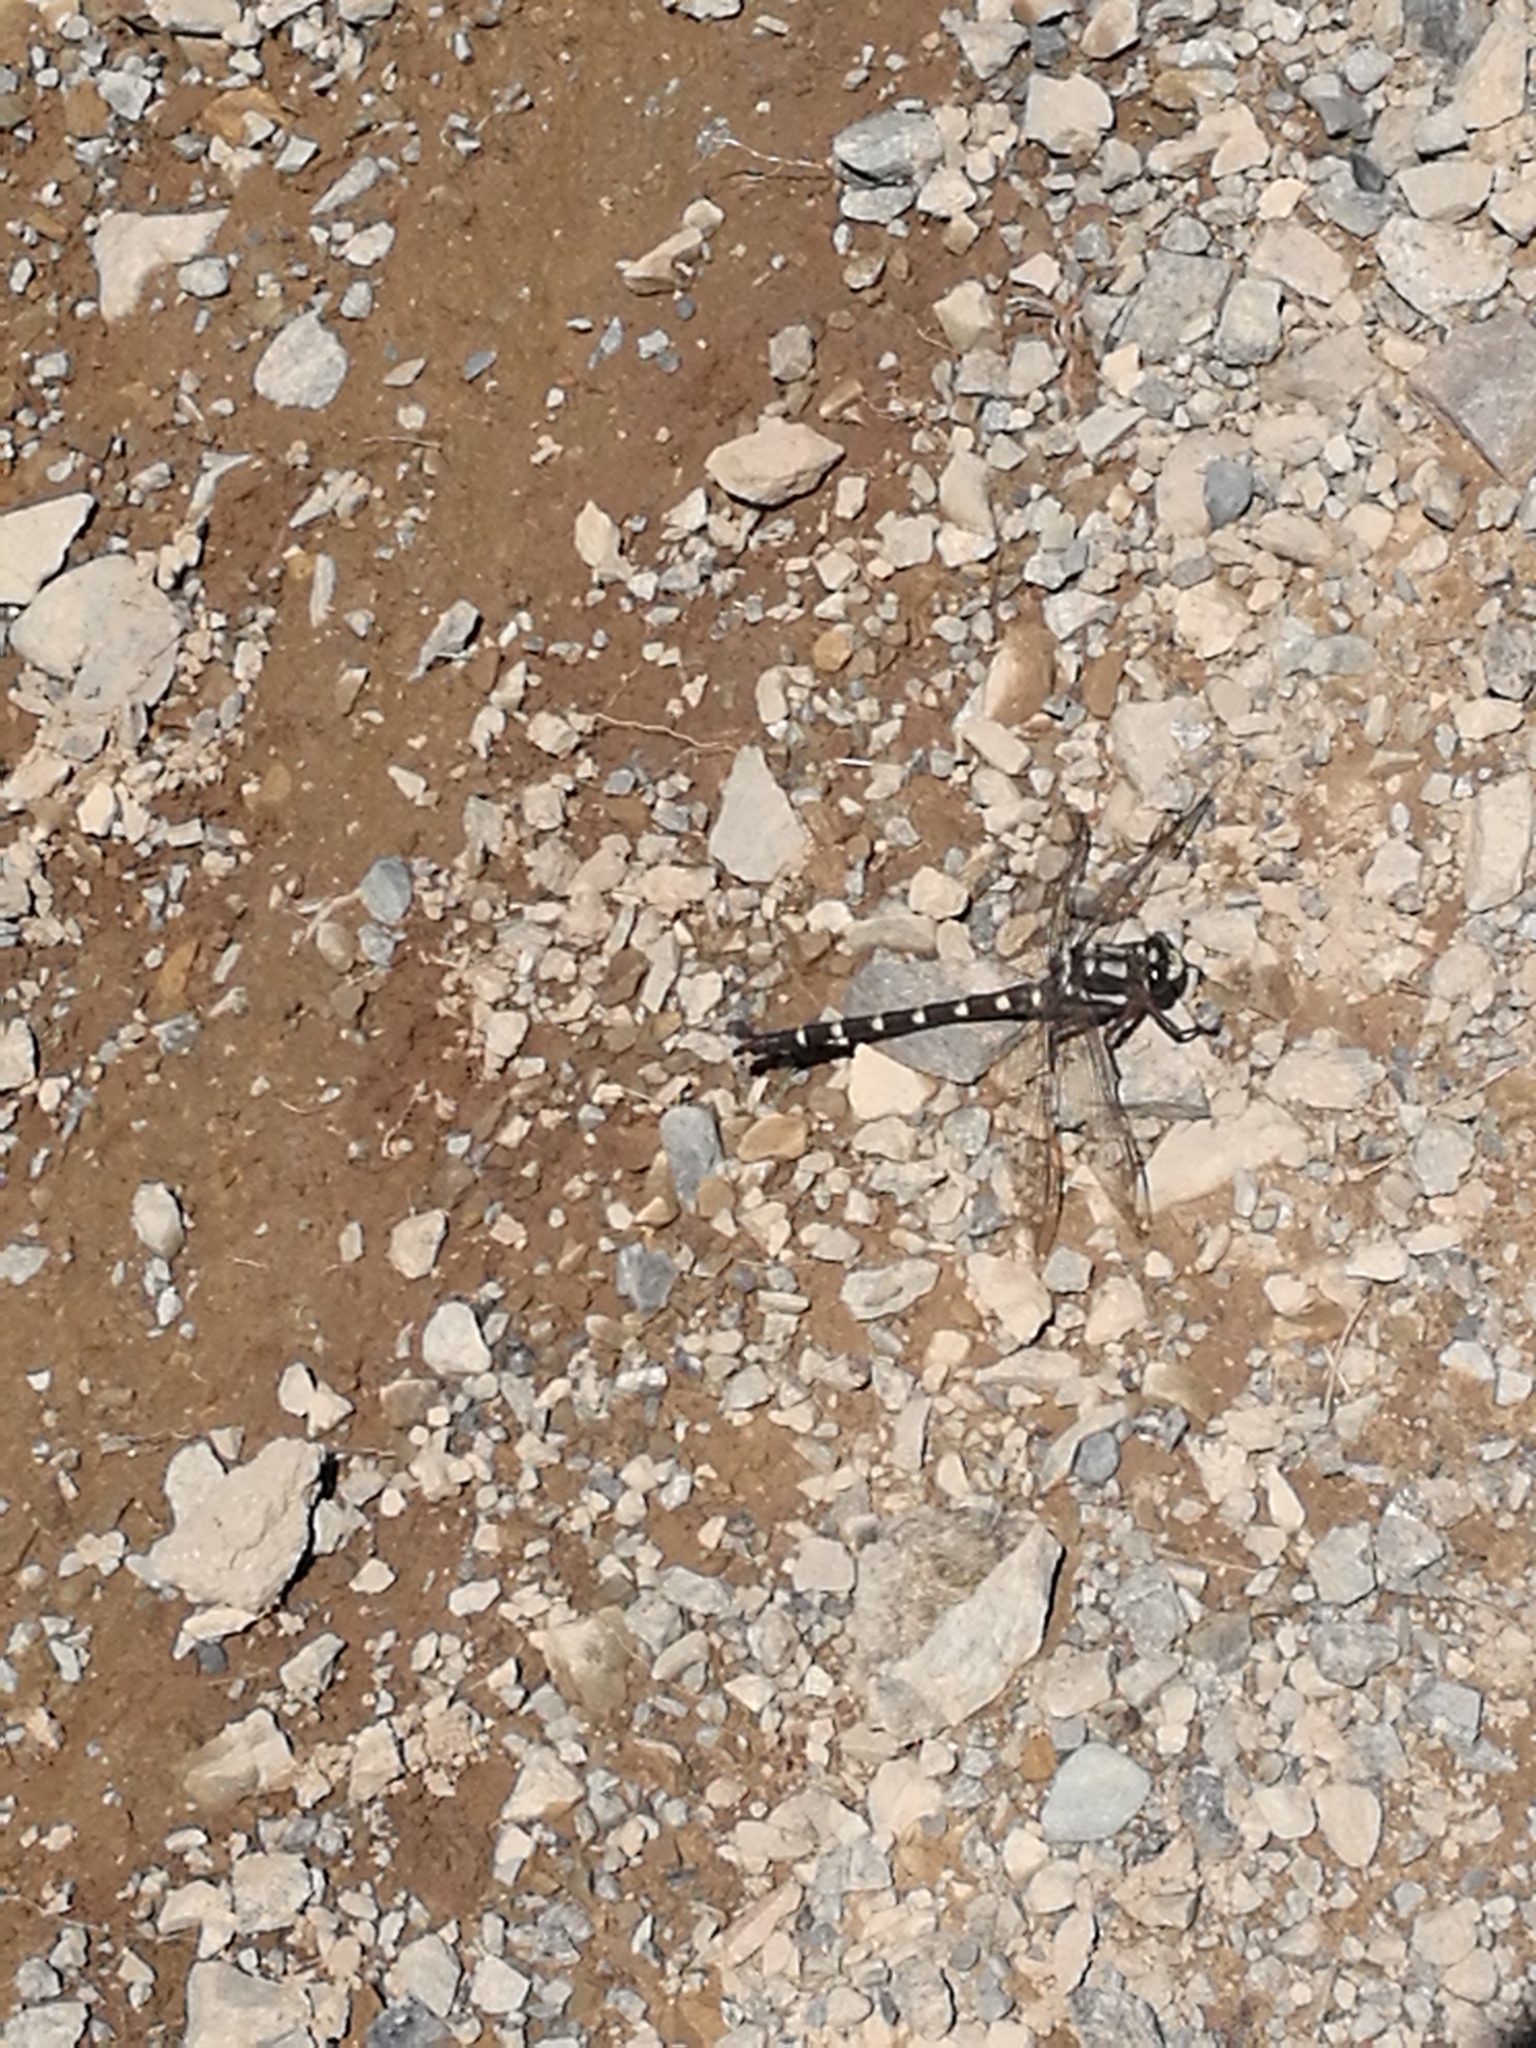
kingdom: Animalia
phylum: Arthropoda
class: Insecta
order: Odonata
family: Petaluridae
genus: Uropetala
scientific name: Uropetala chiltoni
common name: Mountain giant dragonfly
